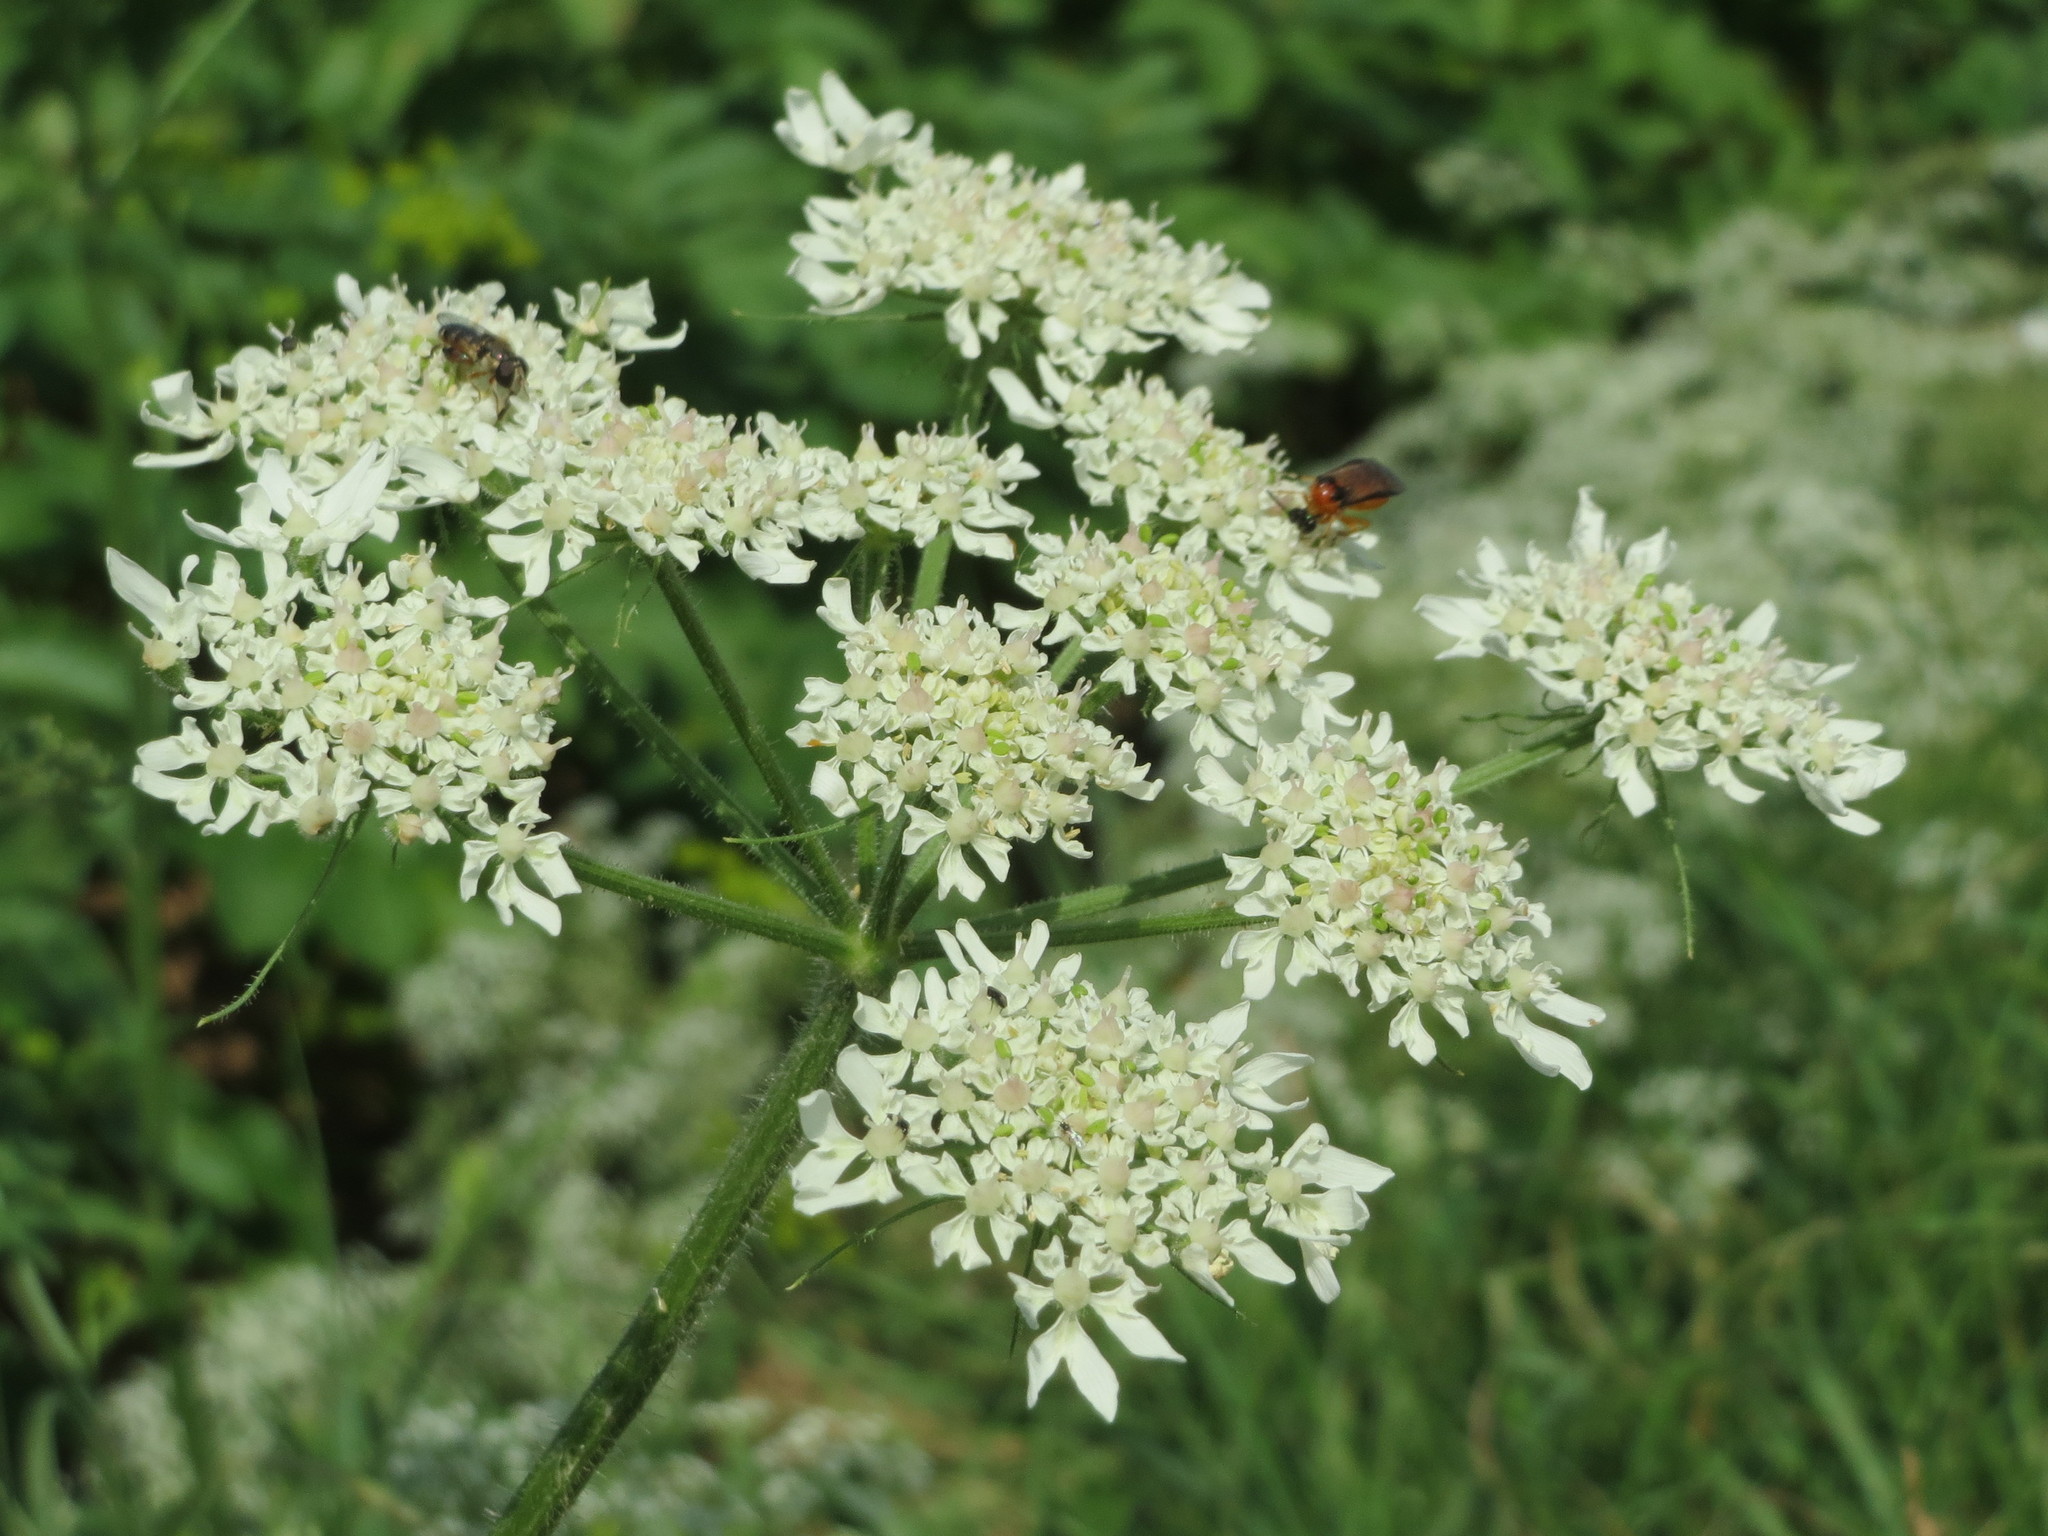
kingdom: Plantae
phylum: Tracheophyta
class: Magnoliopsida
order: Apiales
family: Apiaceae
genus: Heracleum
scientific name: Heracleum sphondylium
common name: Hogweed
